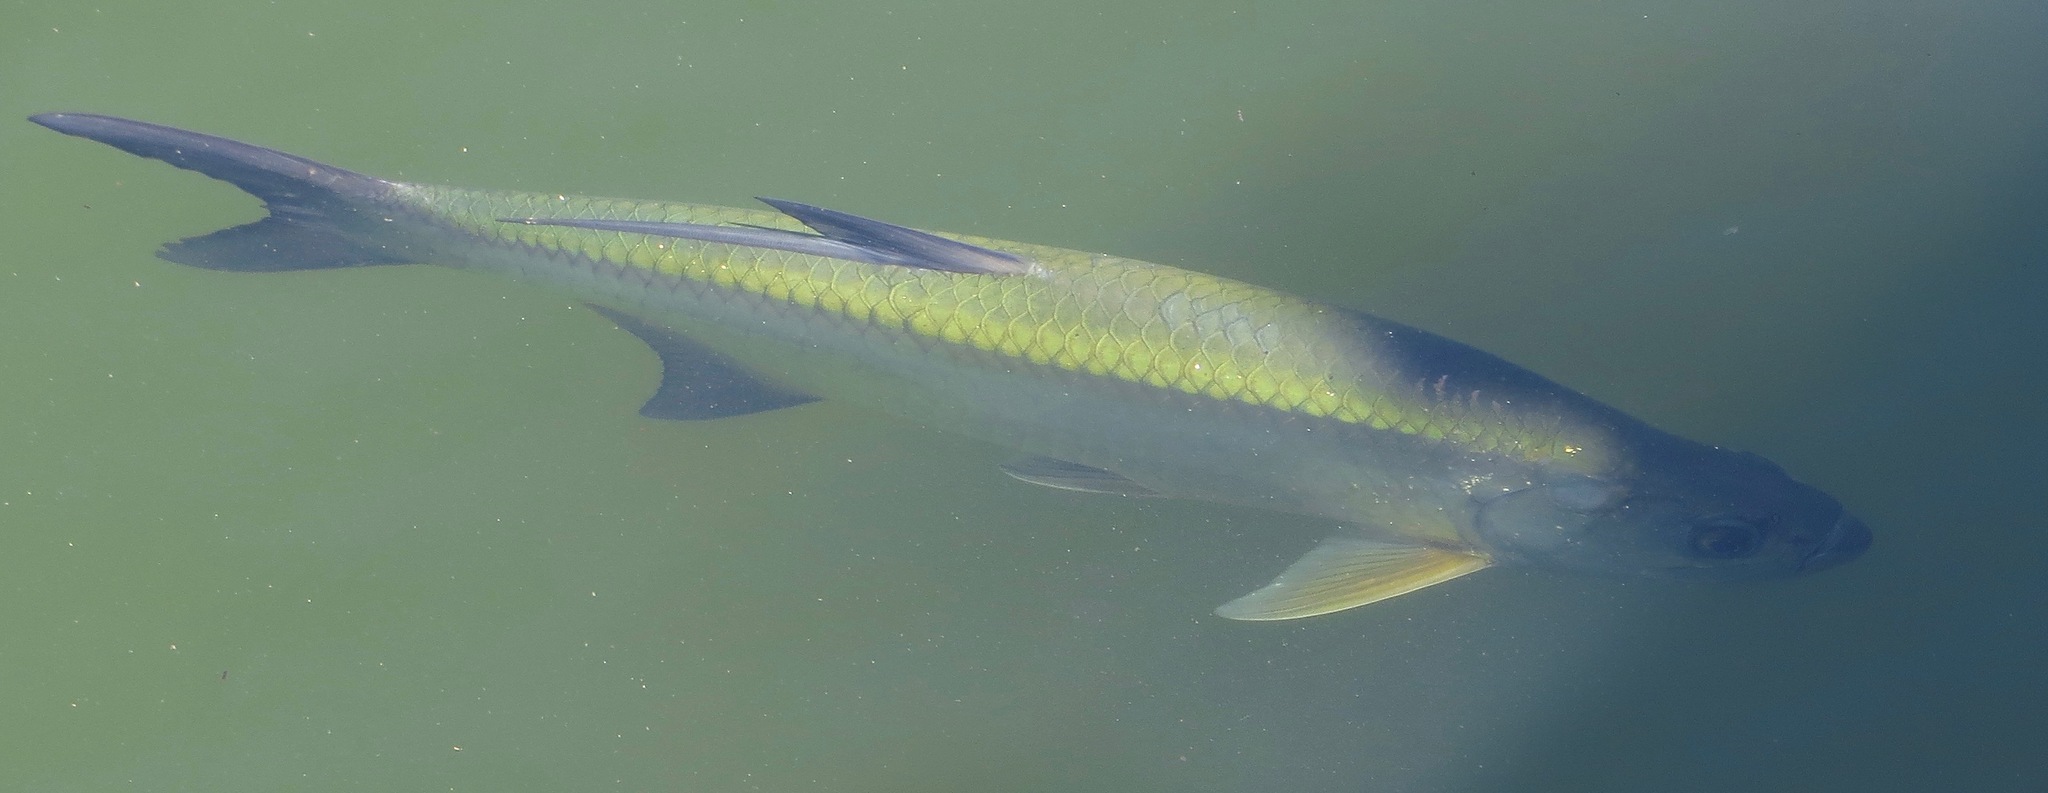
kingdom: Animalia
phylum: Chordata
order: Elopiformes
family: Megalopidae
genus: Megalops
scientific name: Megalops atlanticus
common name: Tarpon
